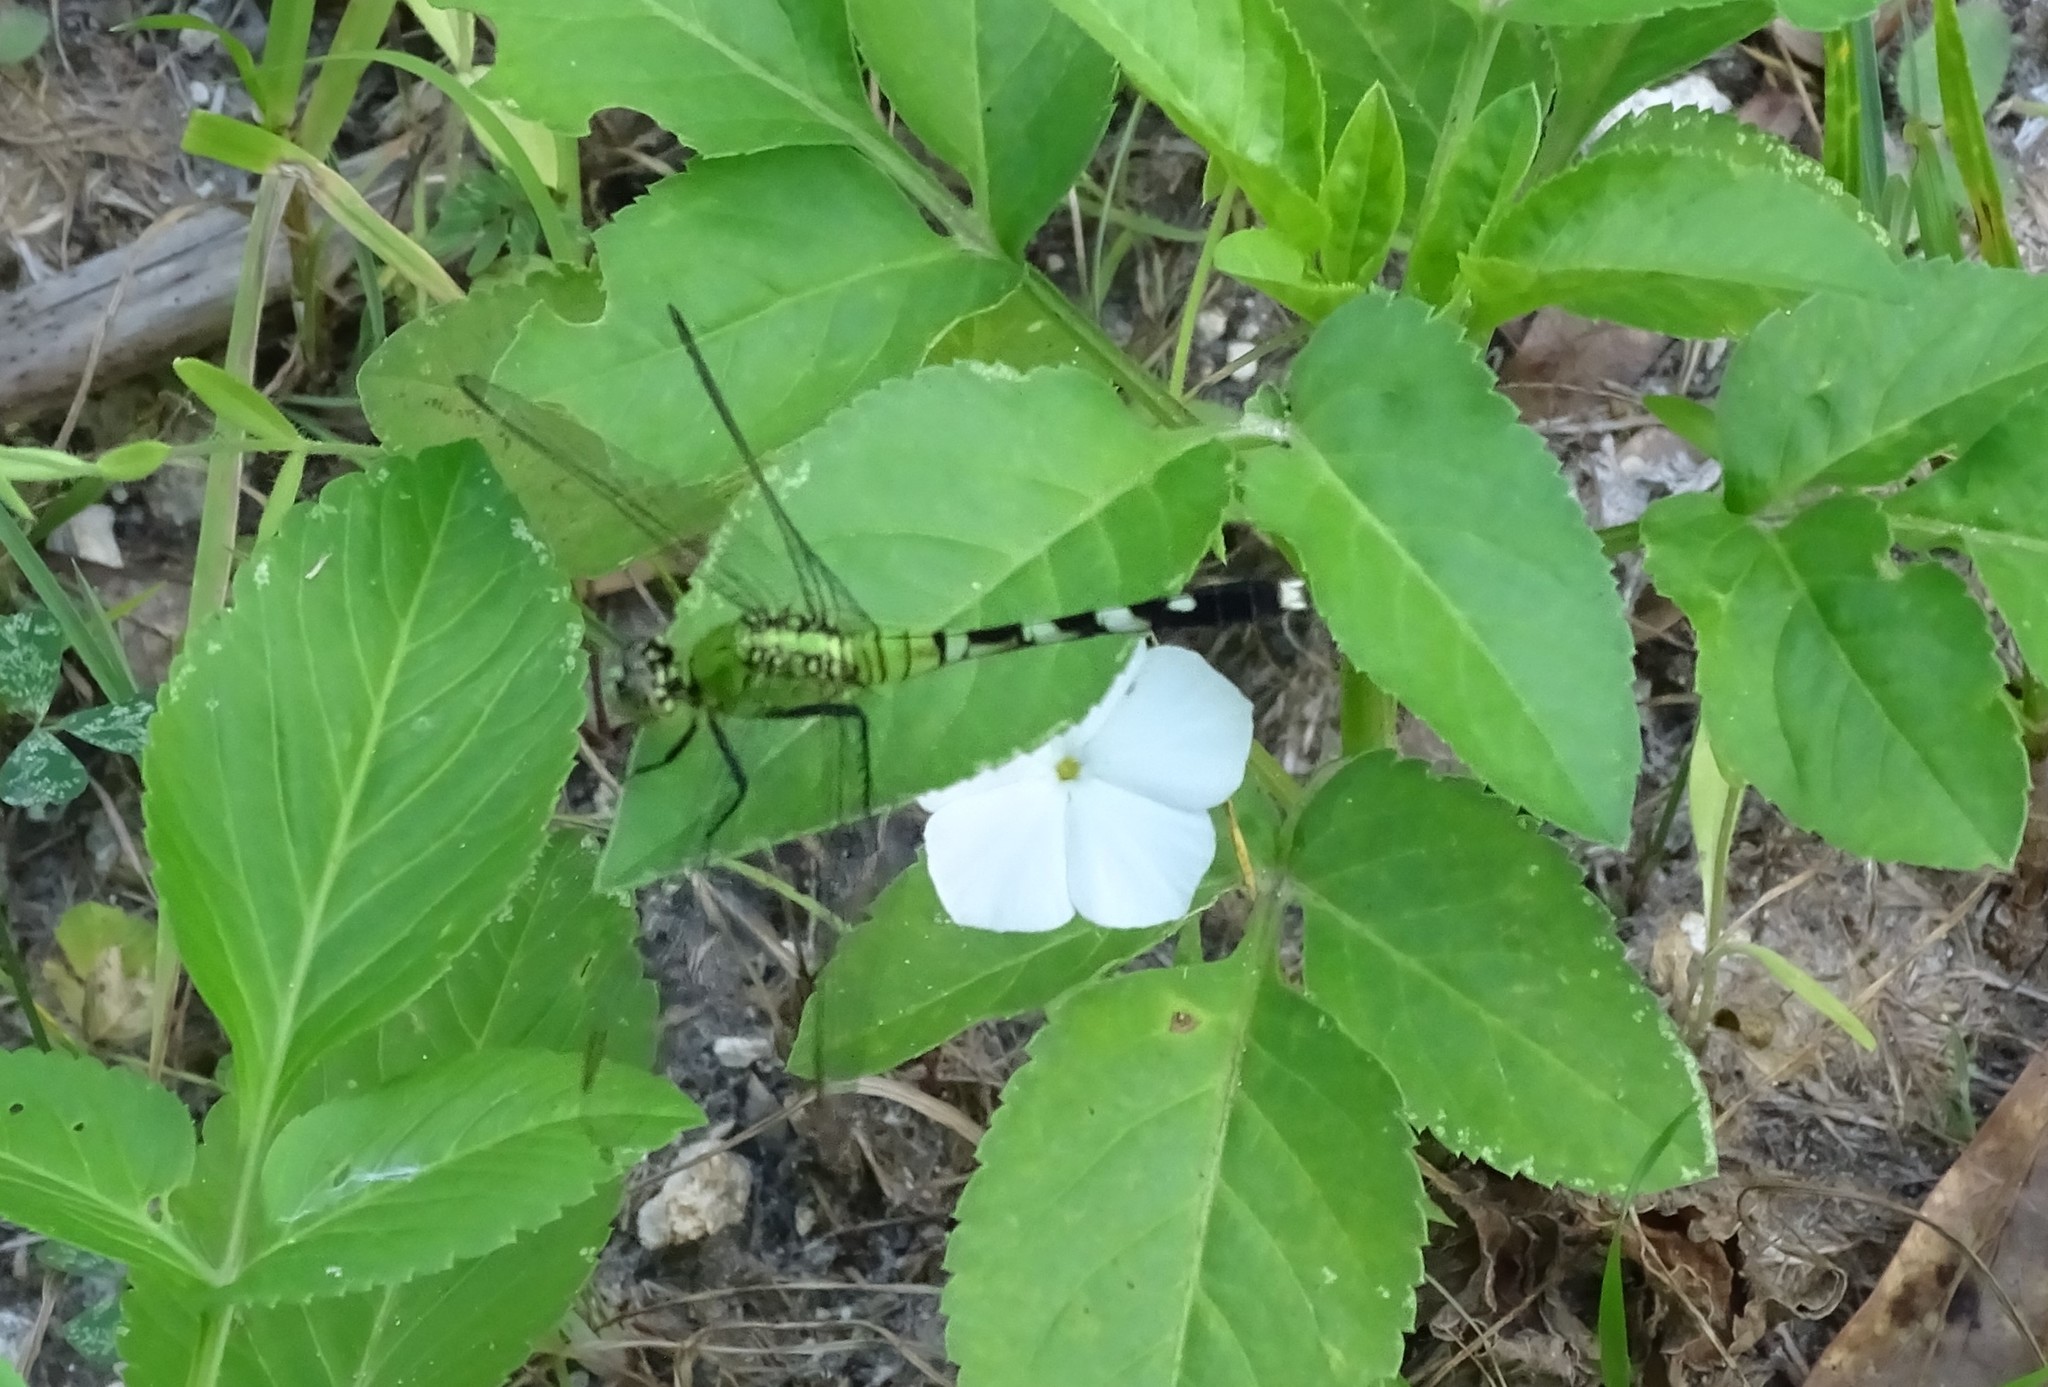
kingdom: Animalia
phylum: Arthropoda
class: Insecta
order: Odonata
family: Libellulidae
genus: Erythemis
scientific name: Erythemis simplicicollis
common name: Eastern pondhawk
